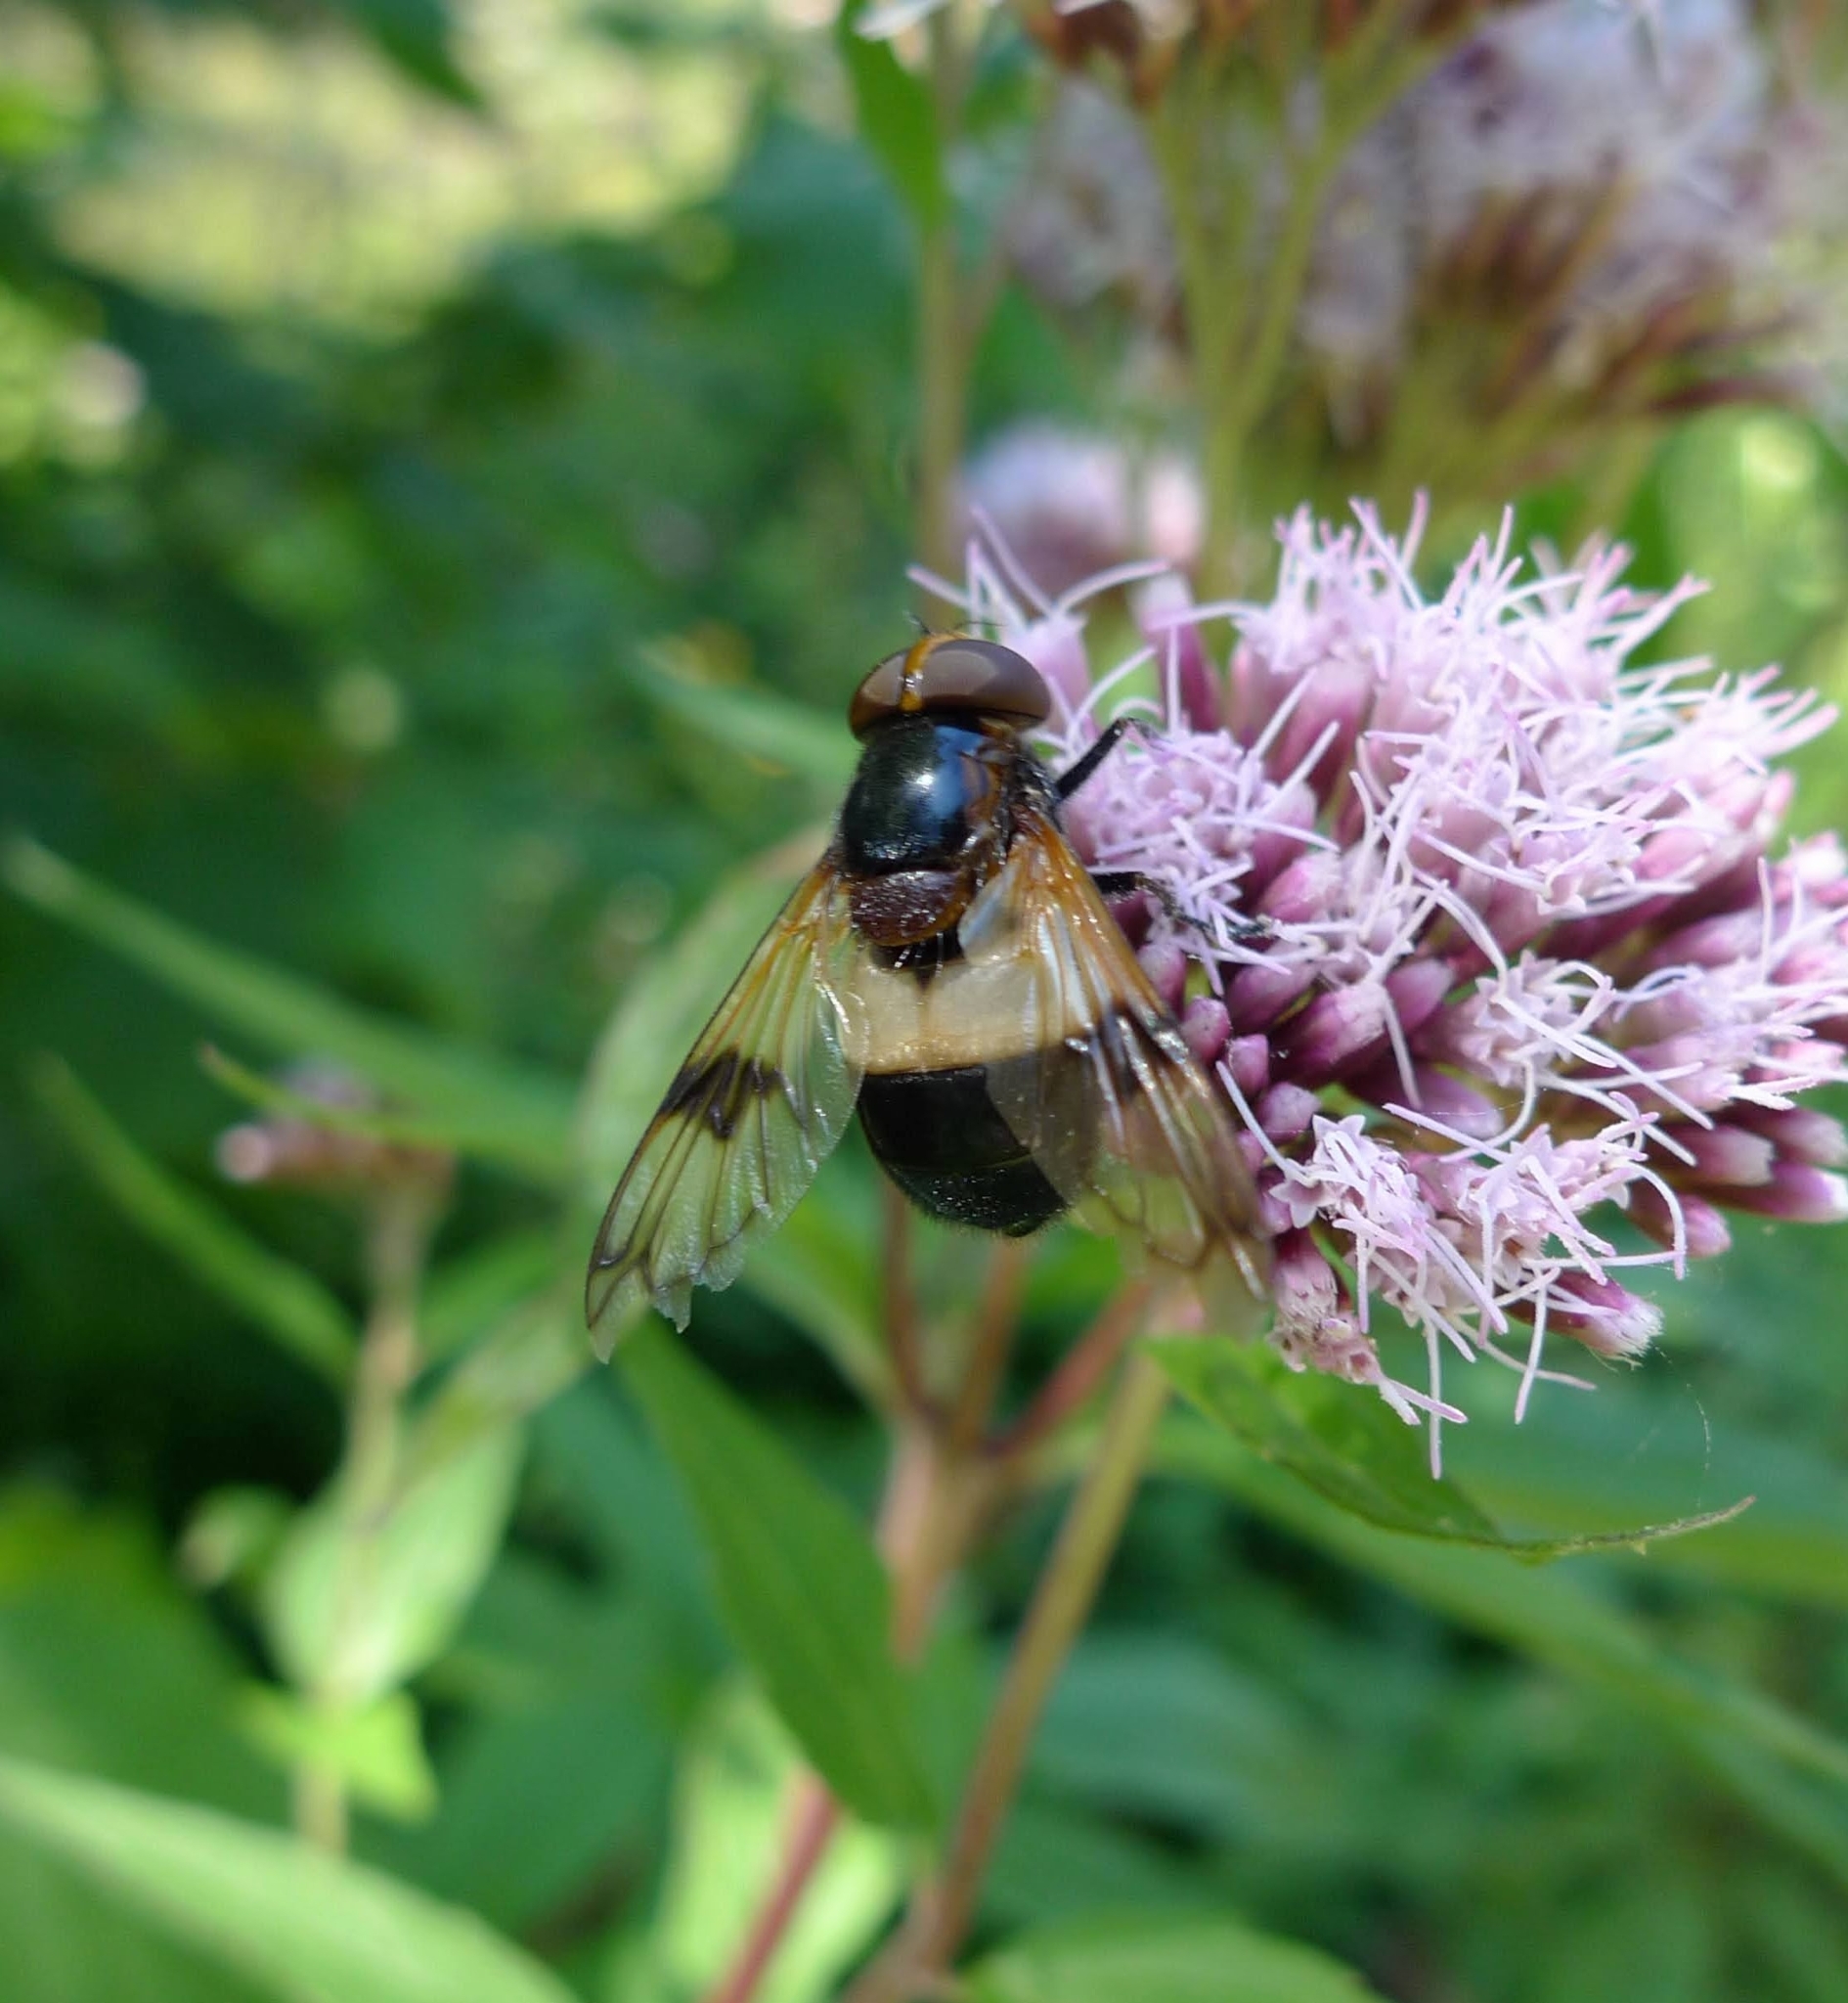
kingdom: Animalia
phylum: Arthropoda
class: Insecta
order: Diptera
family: Syrphidae
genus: Volucella
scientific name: Volucella pellucens
